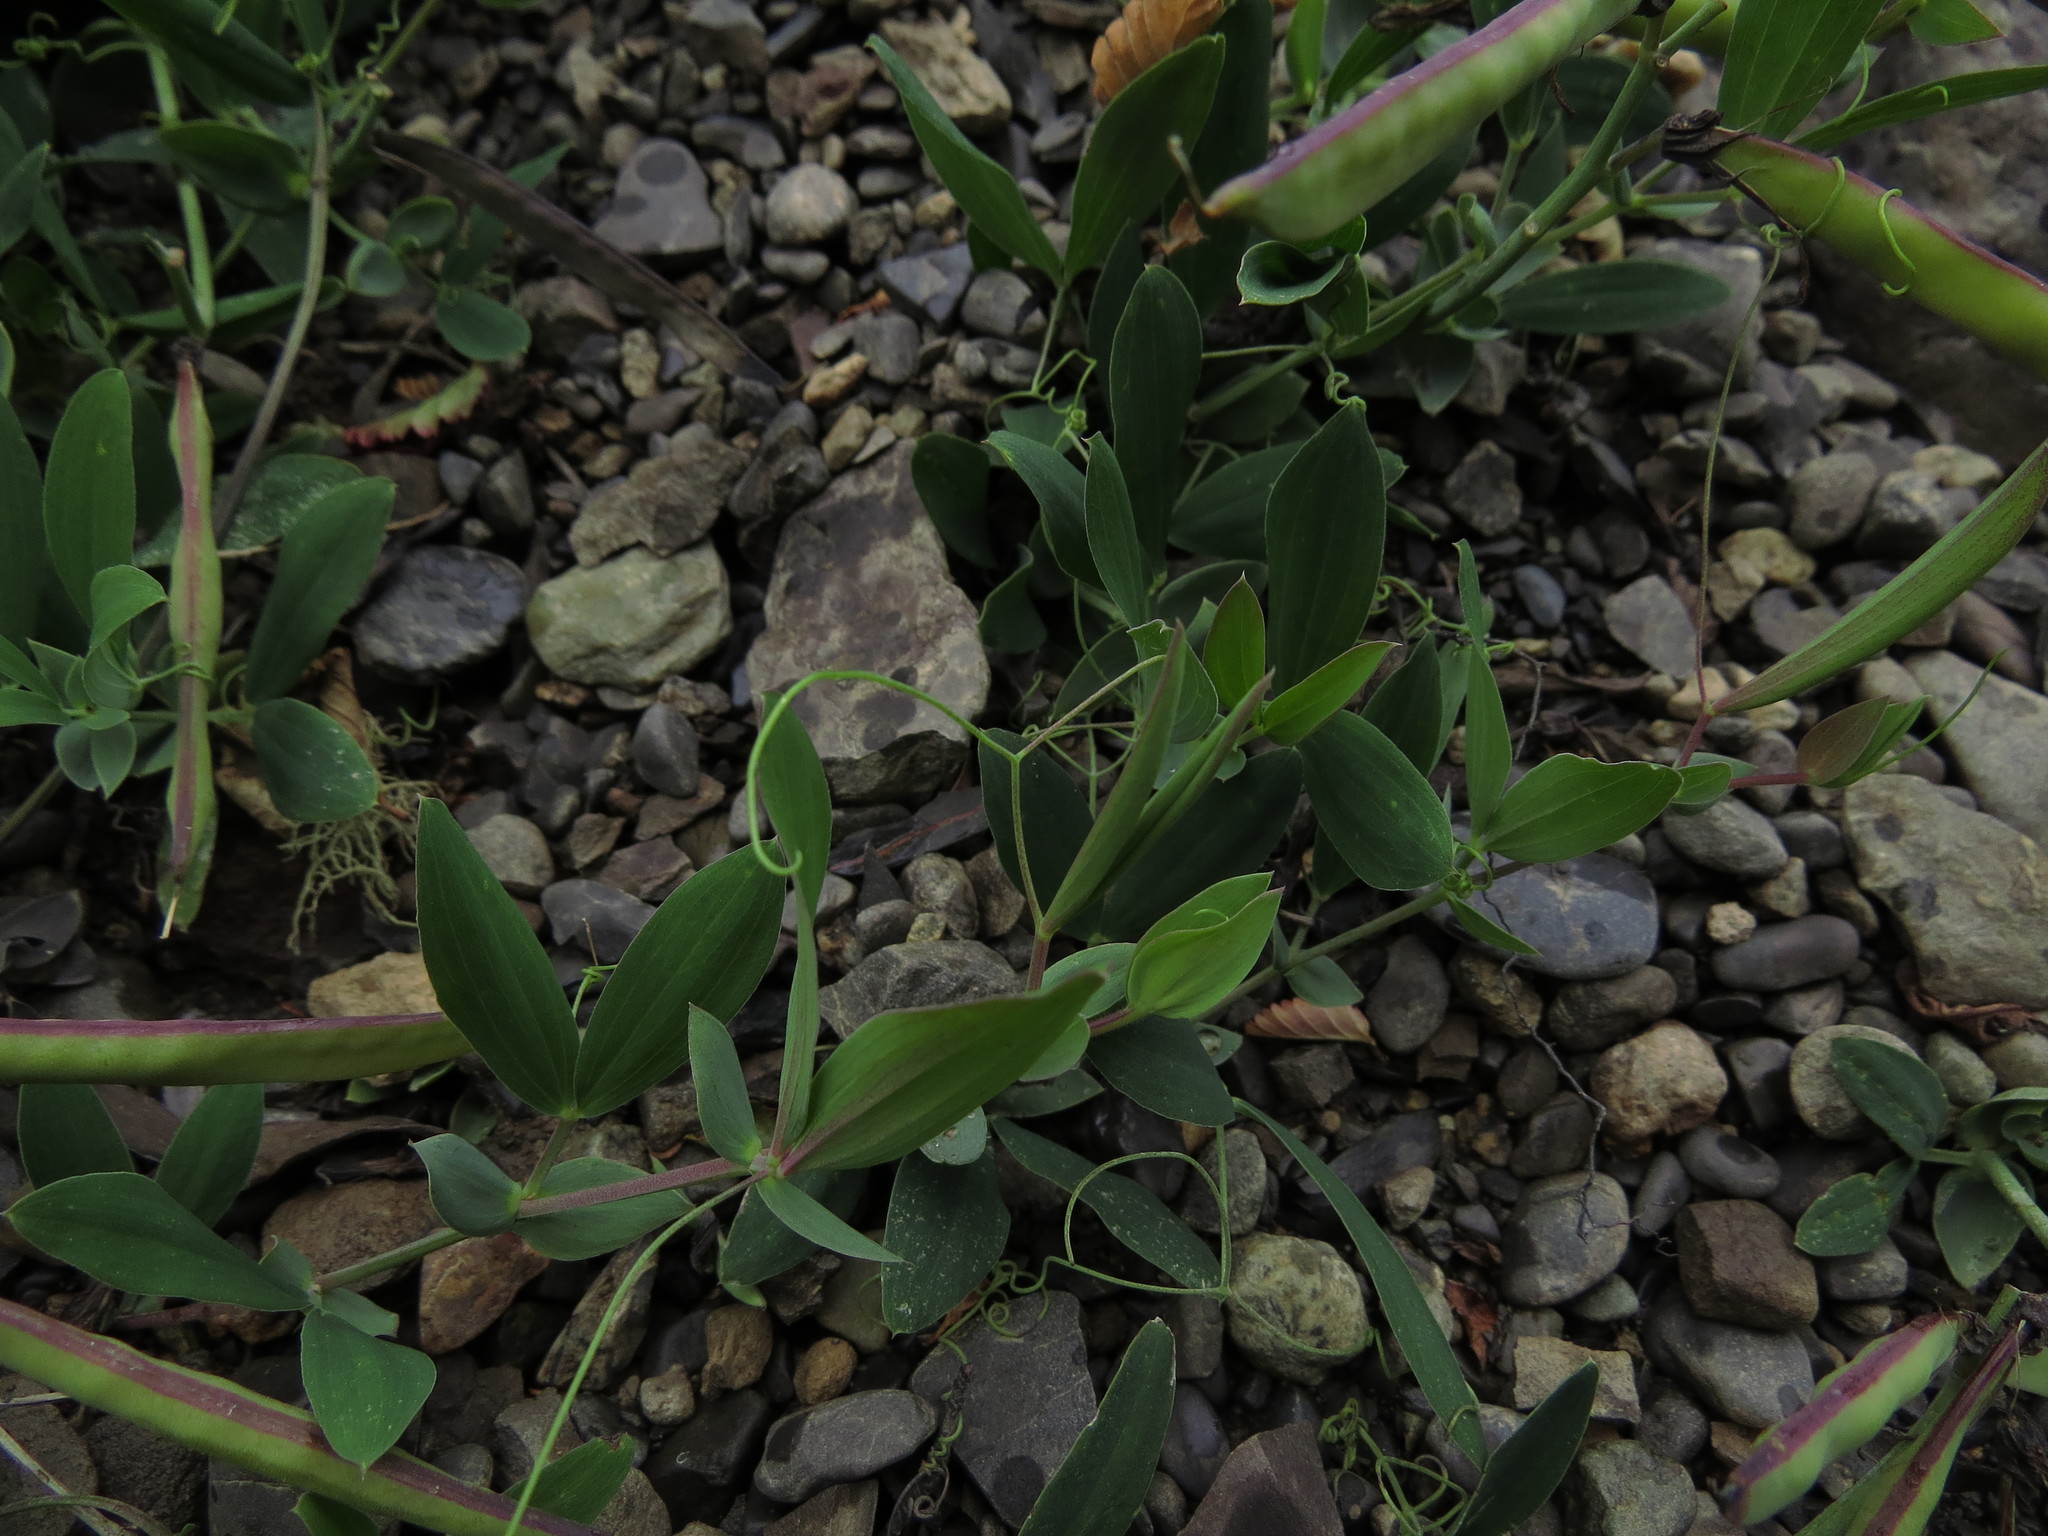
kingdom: Plantae
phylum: Tracheophyta
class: Magnoliopsida
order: Fabales
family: Fabaceae
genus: Lathyrus
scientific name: Lathyrus magellanicus
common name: Lord anson's pea
